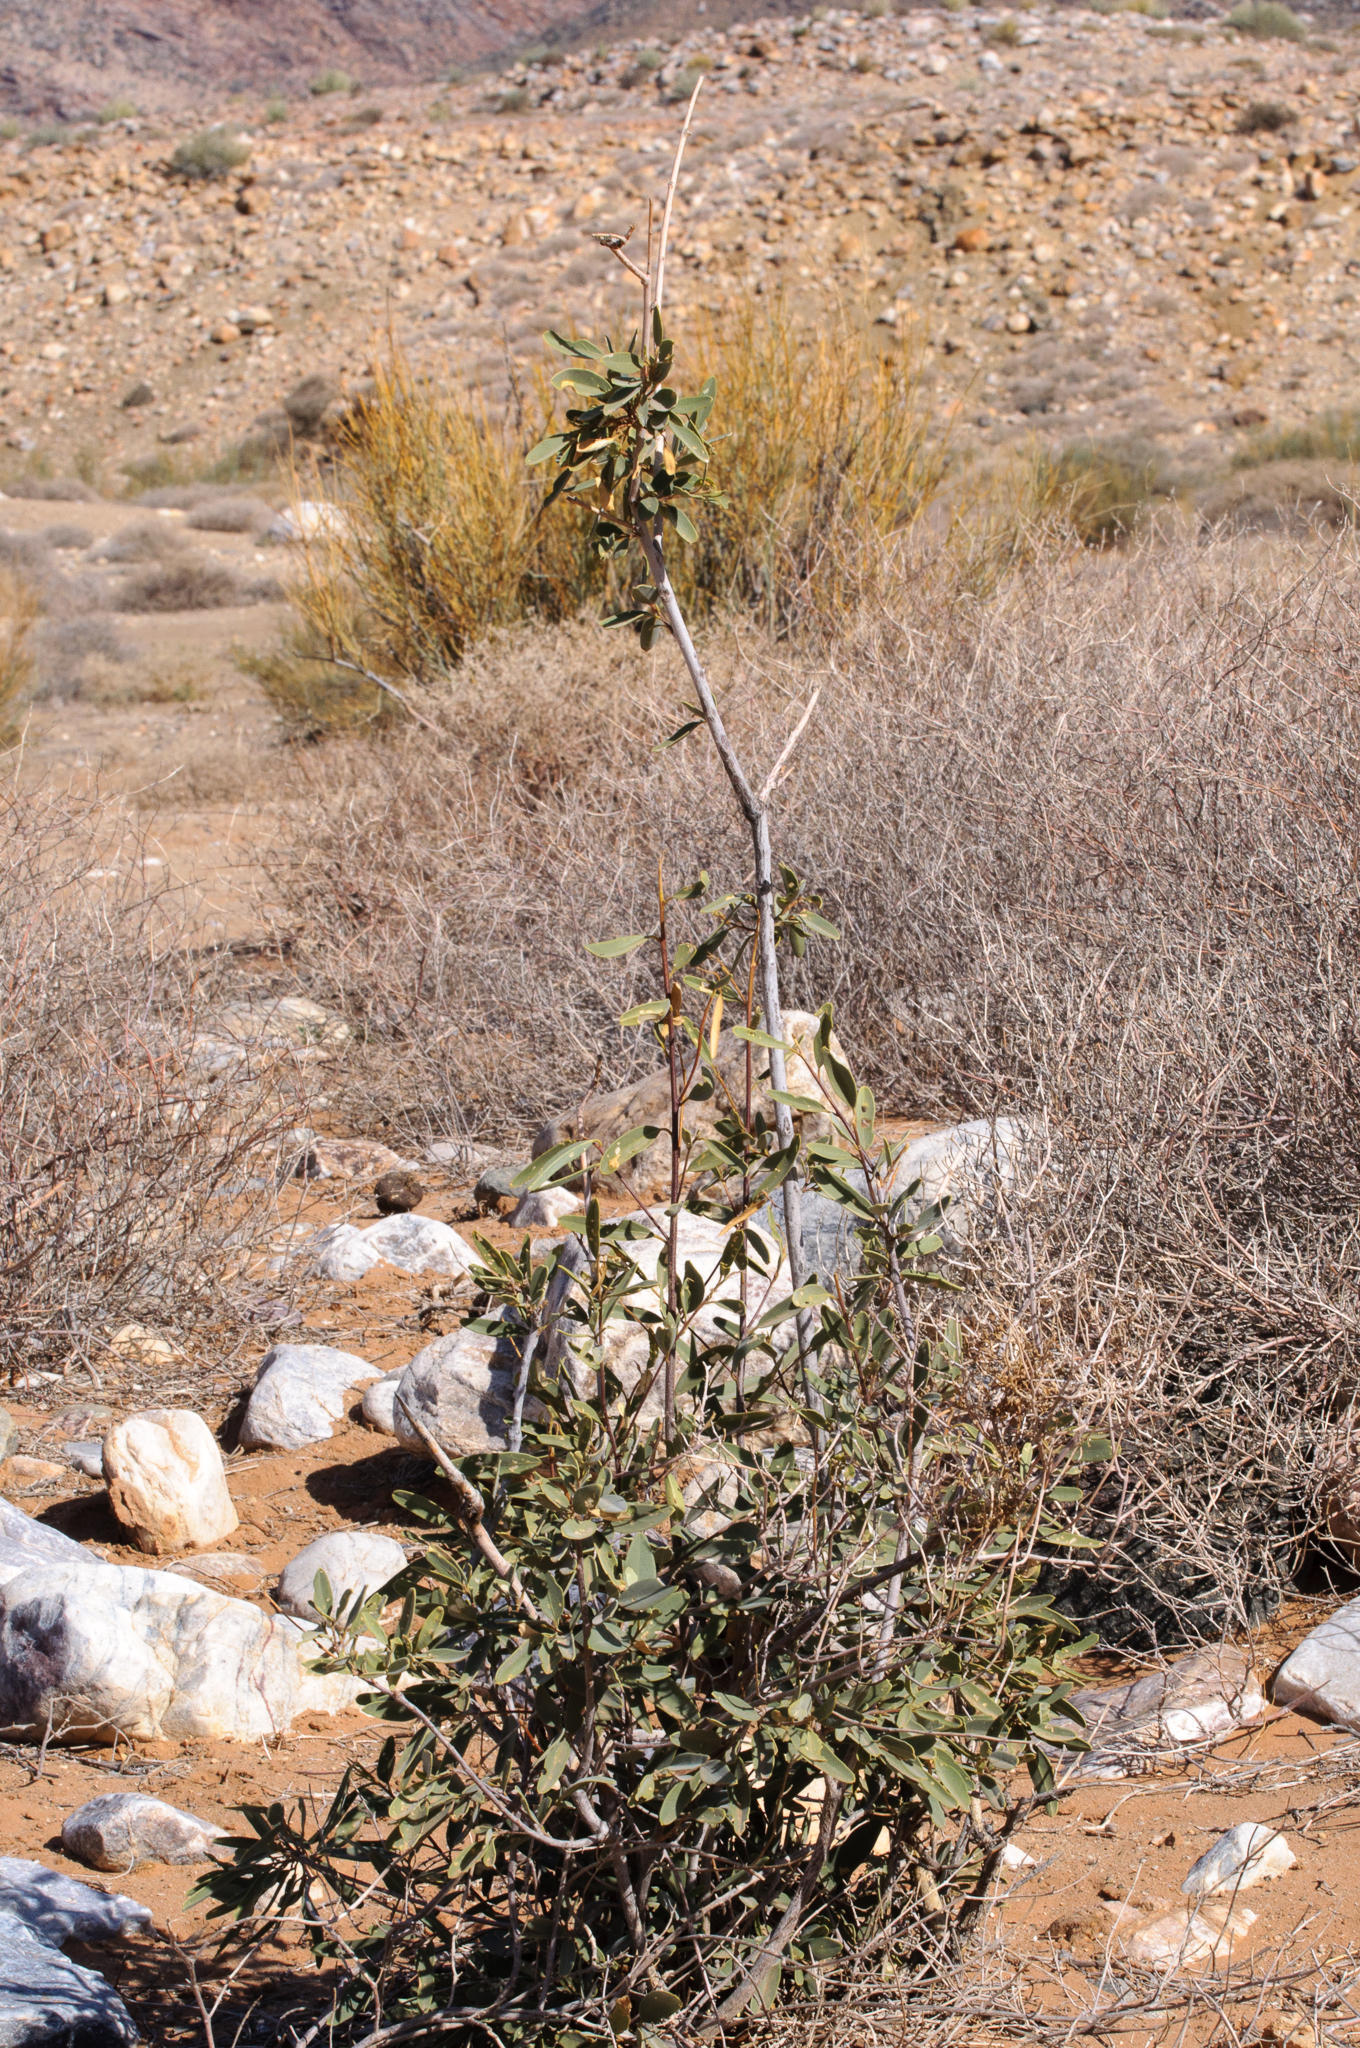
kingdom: Plantae
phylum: Tracheophyta
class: Magnoliopsida
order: Brassicales
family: Capparaceae
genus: Maerua
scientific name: Maerua schinzii
